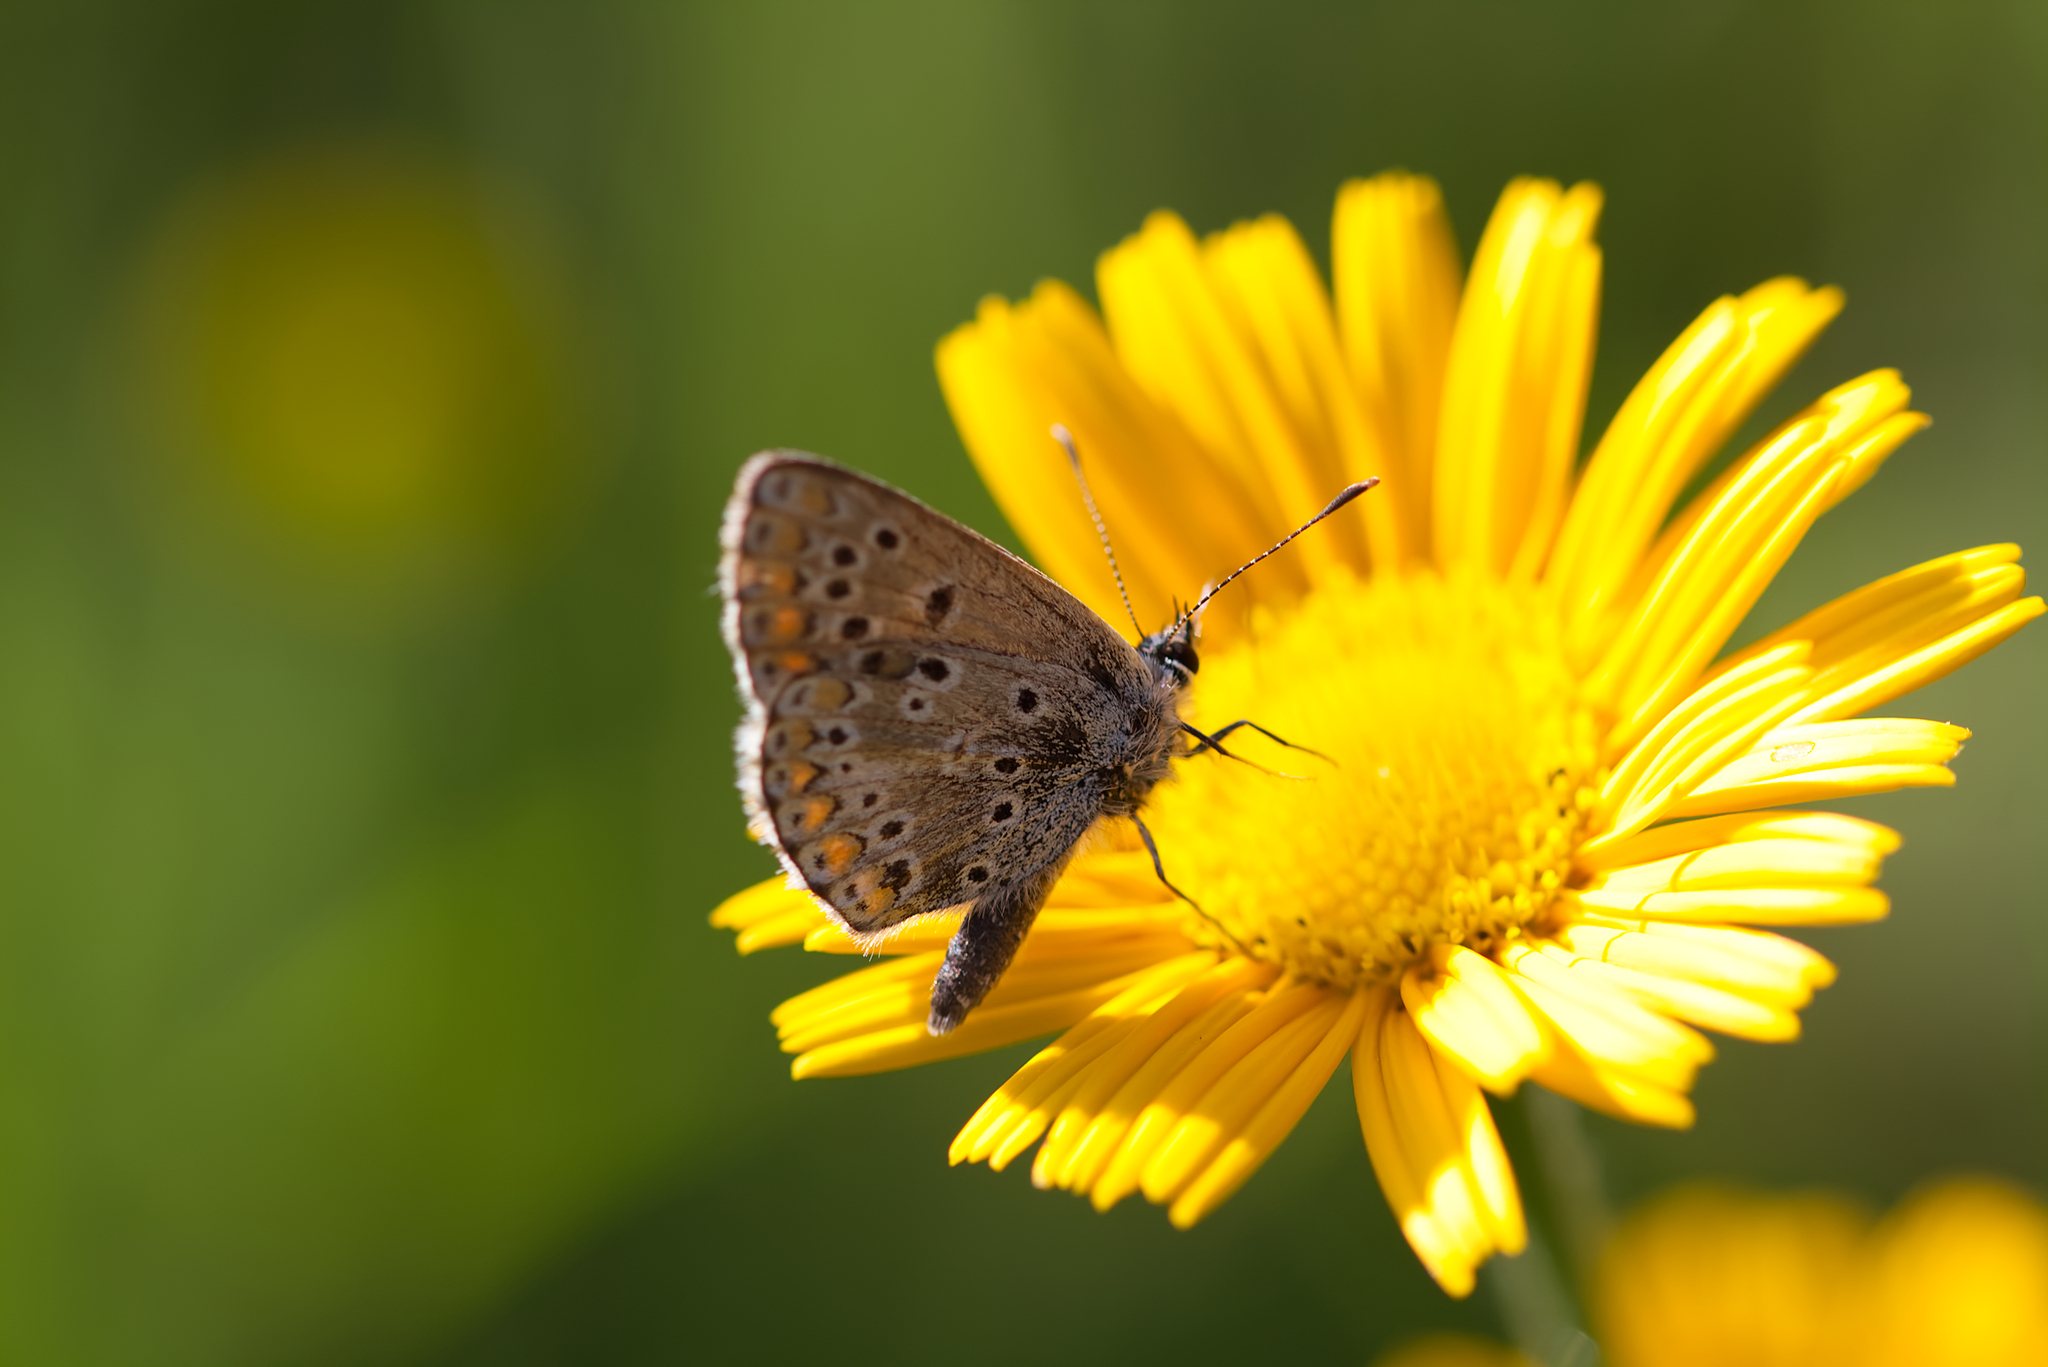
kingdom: Animalia
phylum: Arthropoda
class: Insecta
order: Lepidoptera
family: Lycaenidae
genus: Aricia
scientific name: Aricia agestis
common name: Brown argus
